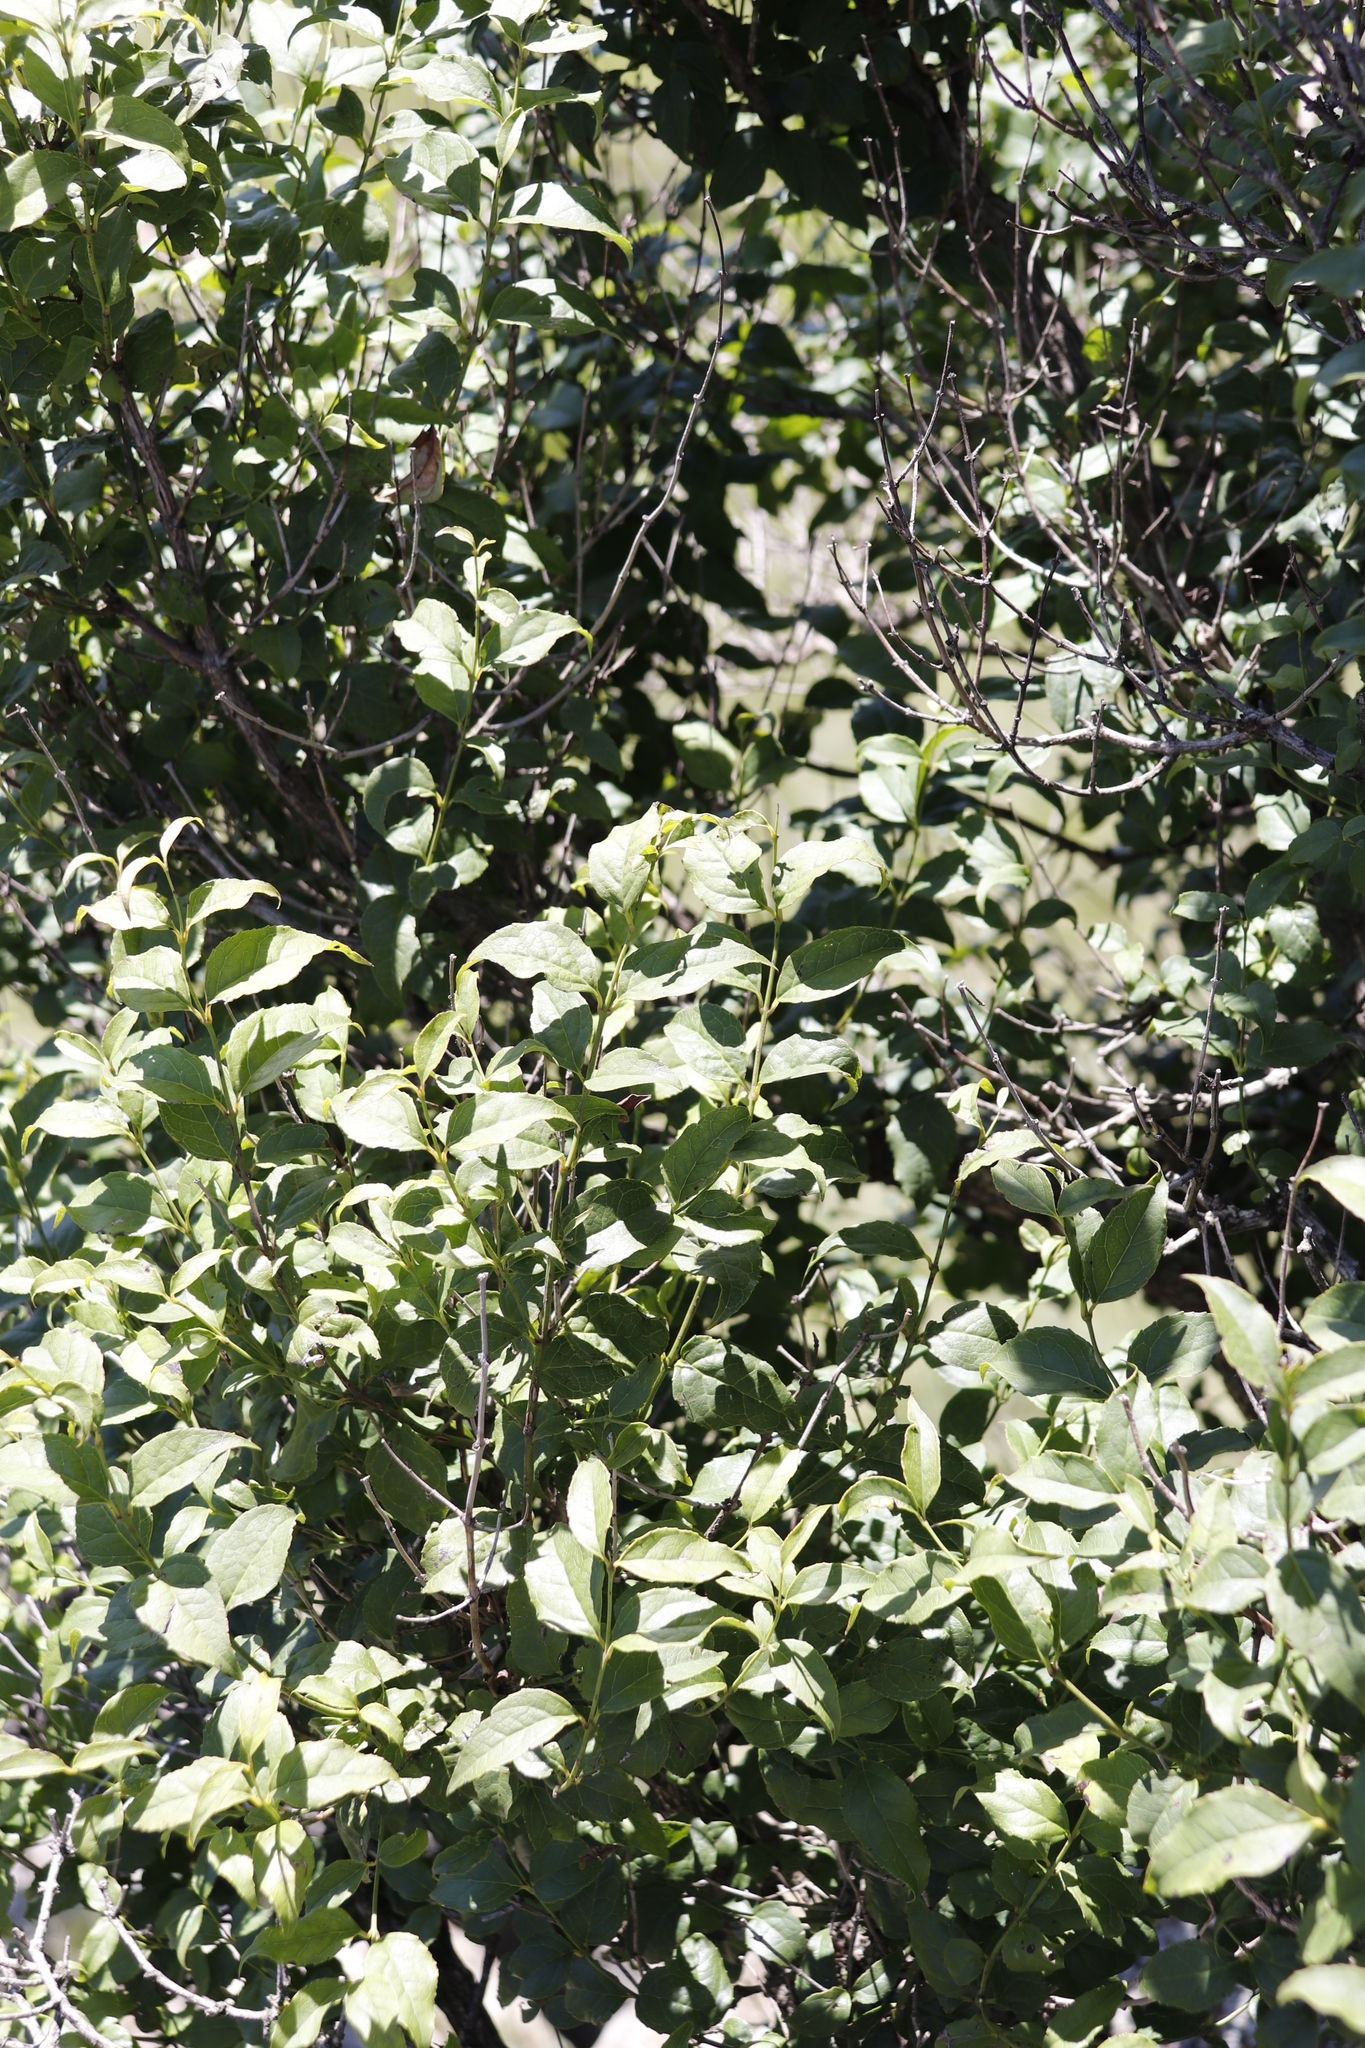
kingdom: Plantae
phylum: Tracheophyta
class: Magnoliopsida
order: Lamiales
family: Stilbaceae
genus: Halleria
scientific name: Halleria lucida
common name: Tree fuschia
